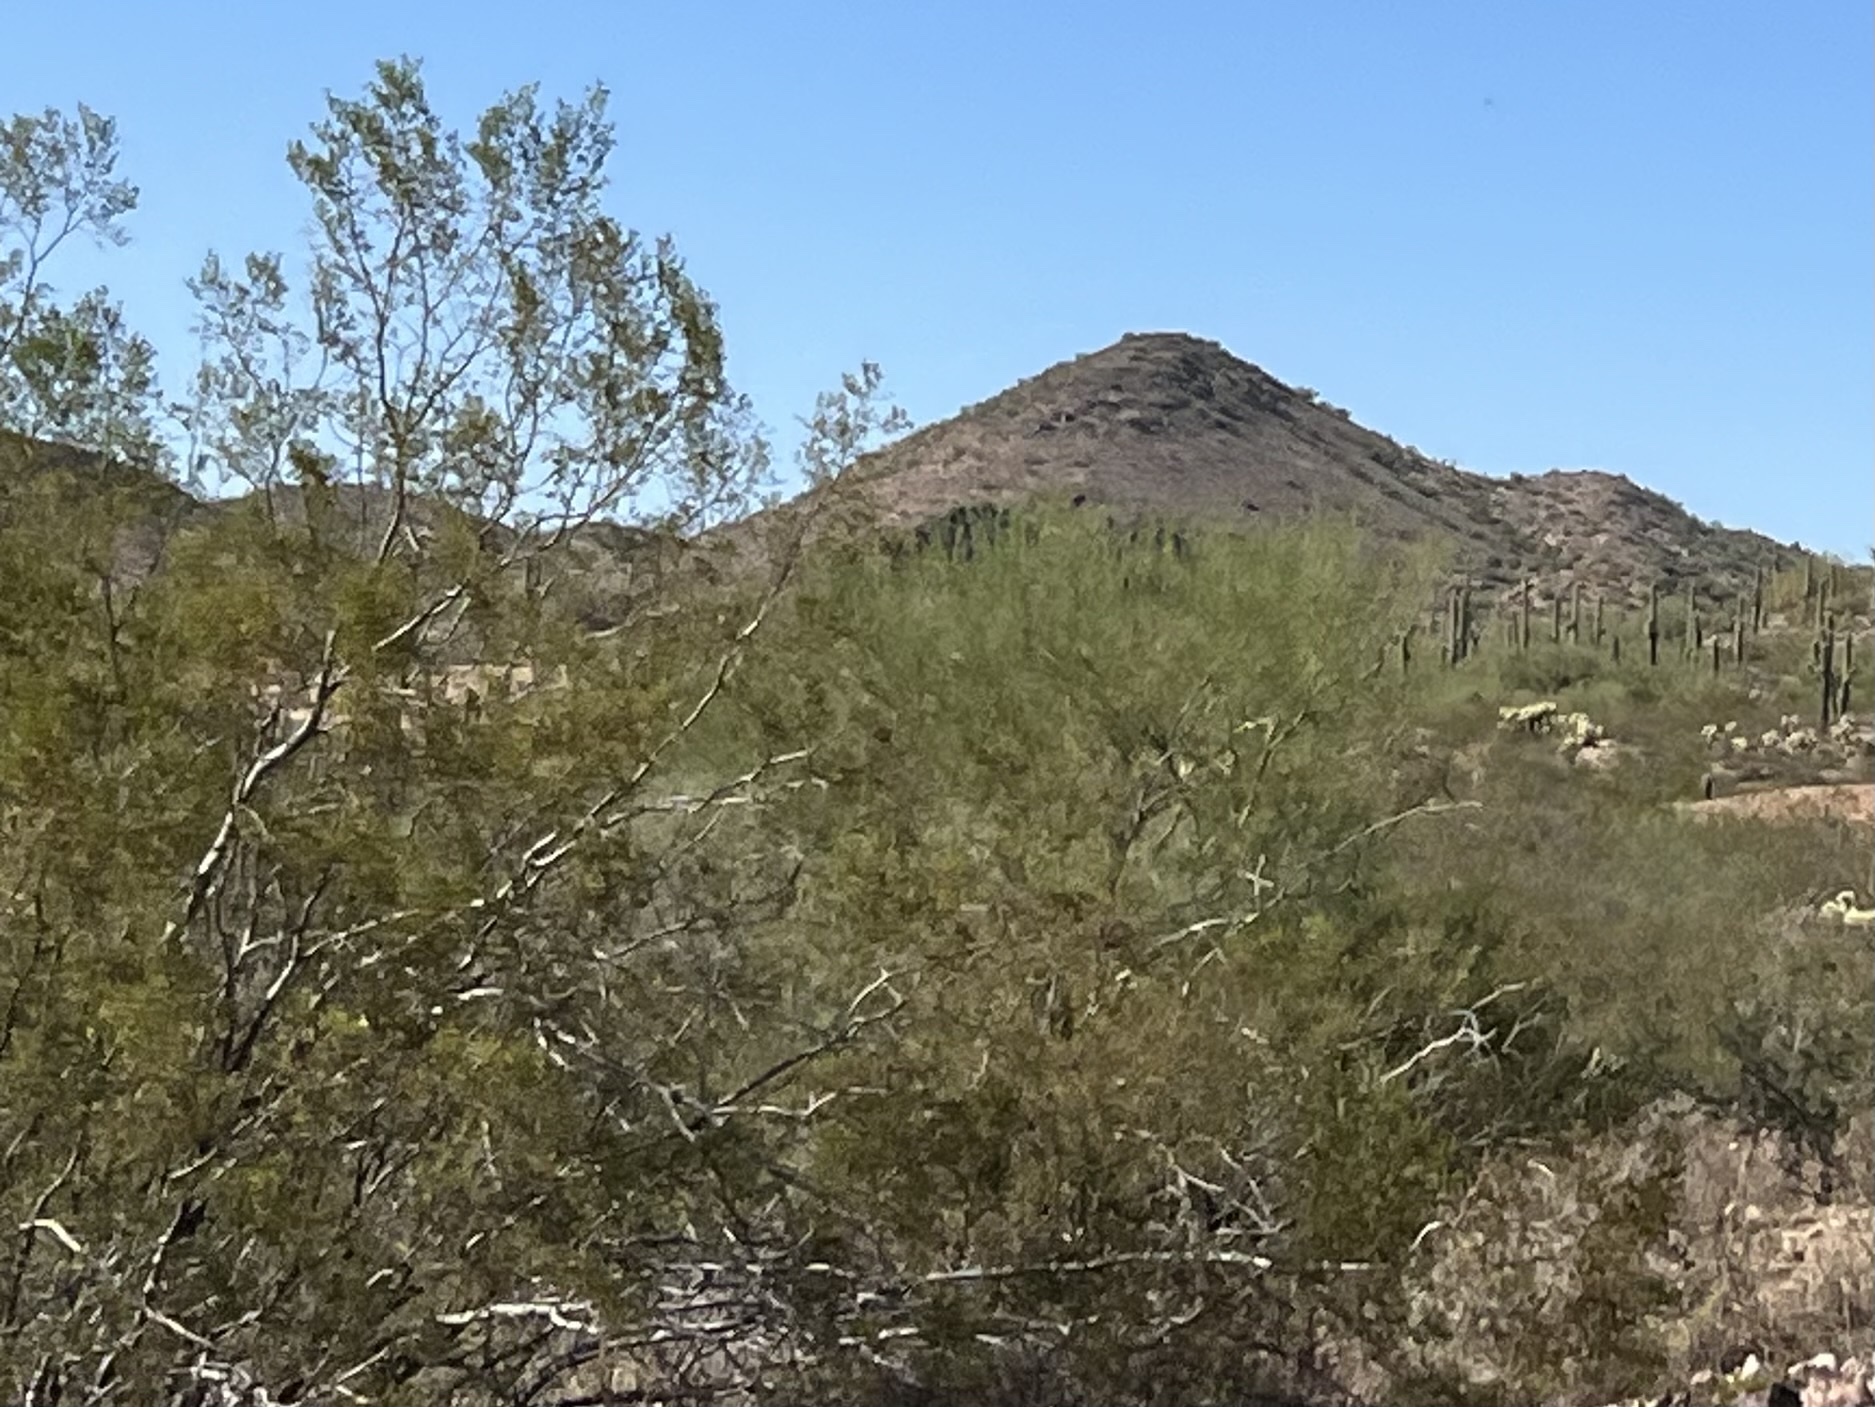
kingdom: Plantae
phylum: Tracheophyta
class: Magnoliopsida
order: Zygophyllales
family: Zygophyllaceae
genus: Larrea
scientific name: Larrea tridentata
